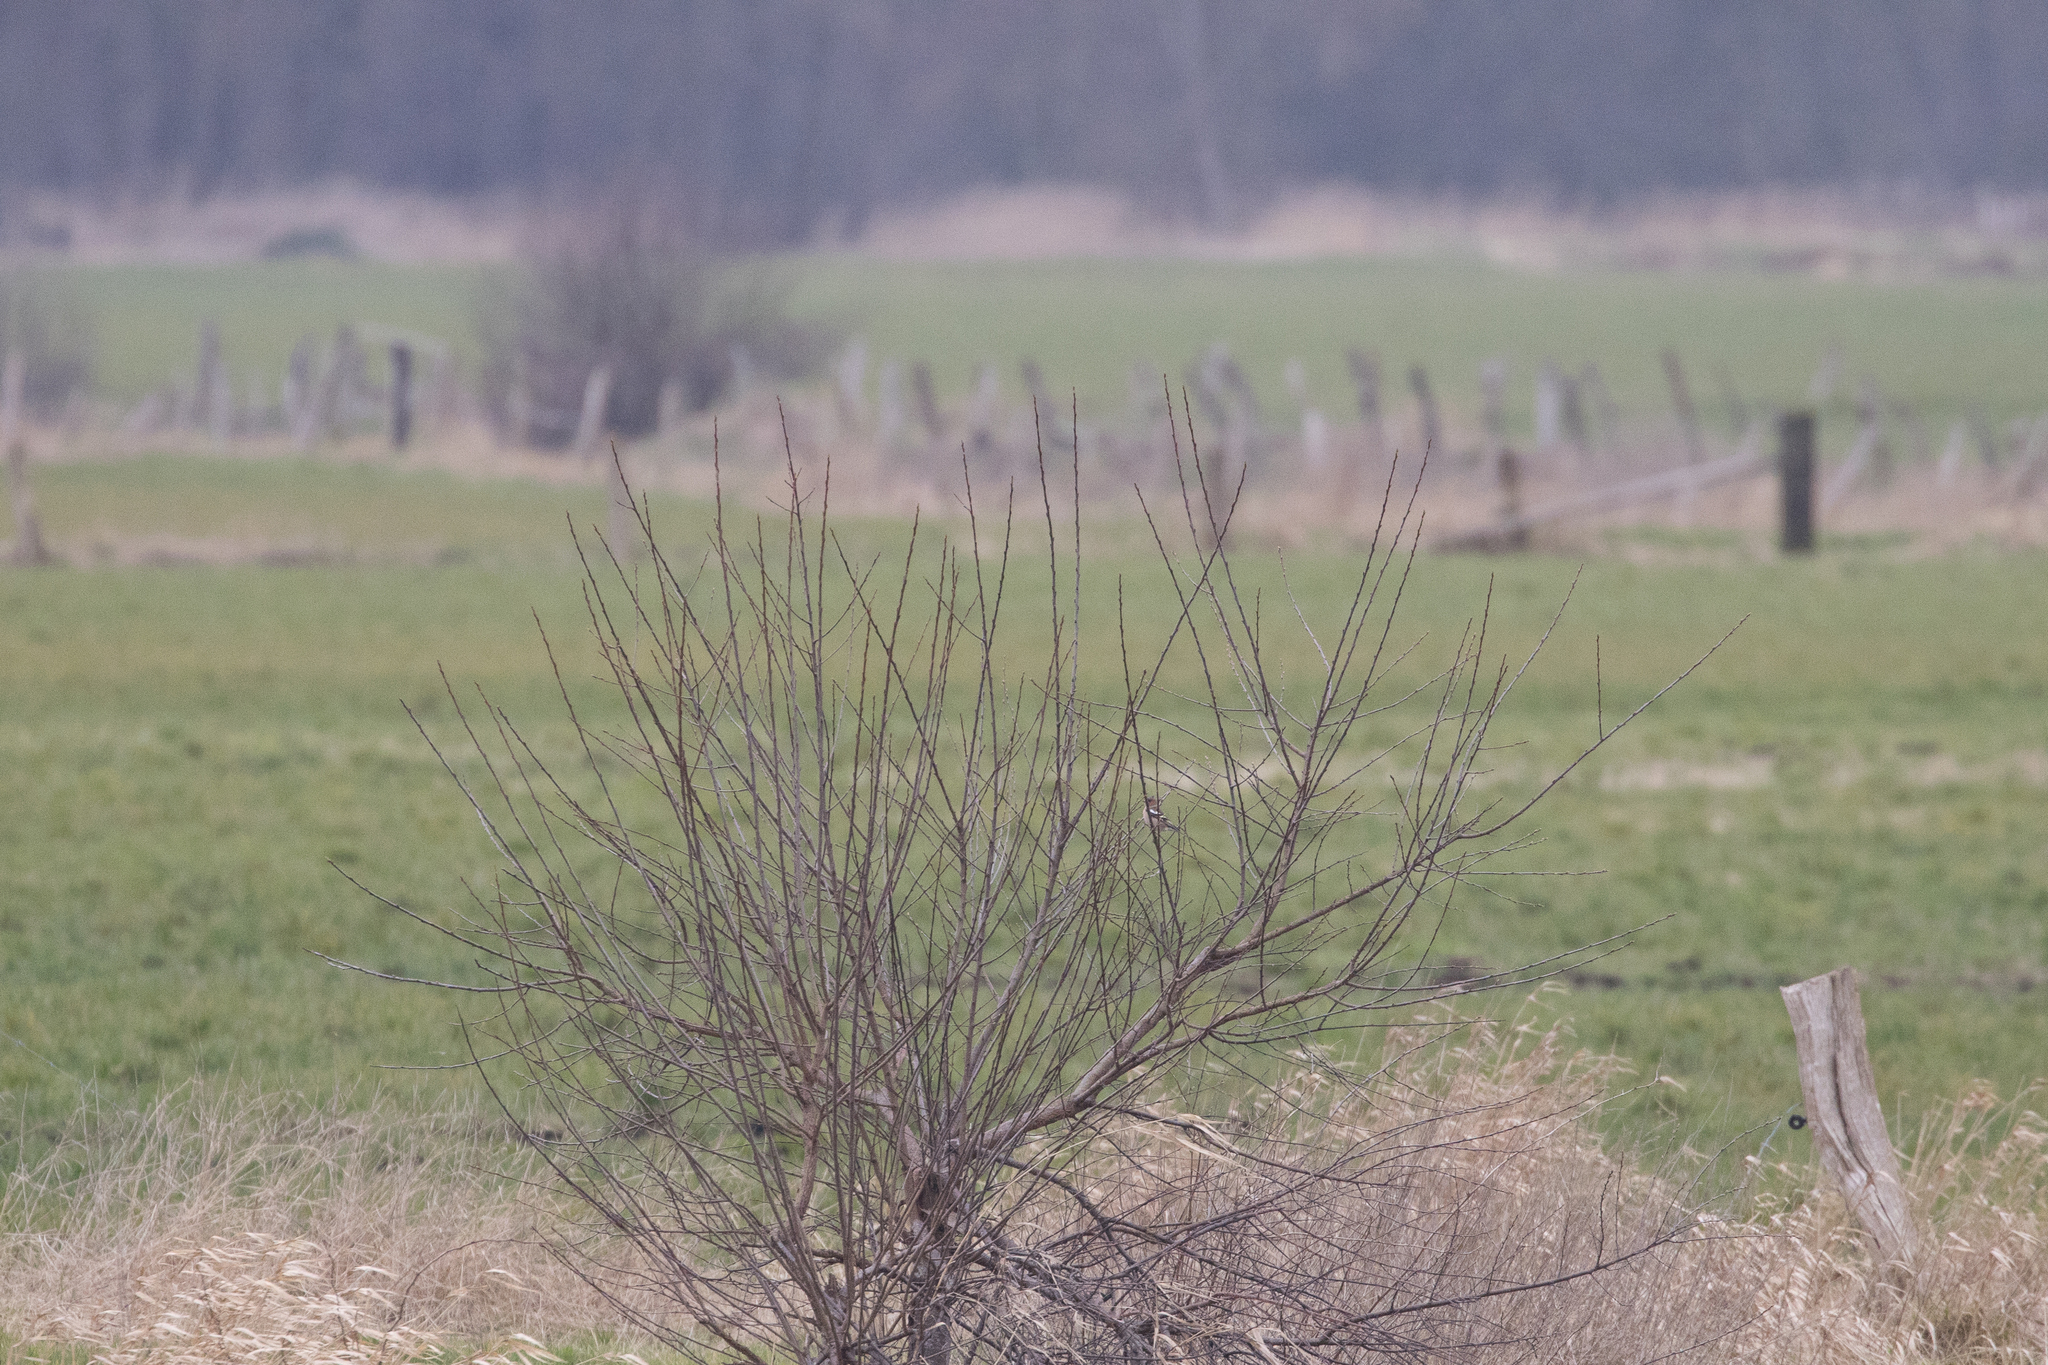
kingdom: Animalia
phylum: Chordata
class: Aves
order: Passeriformes
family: Fringillidae
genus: Fringilla
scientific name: Fringilla coelebs
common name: Common chaffinch
